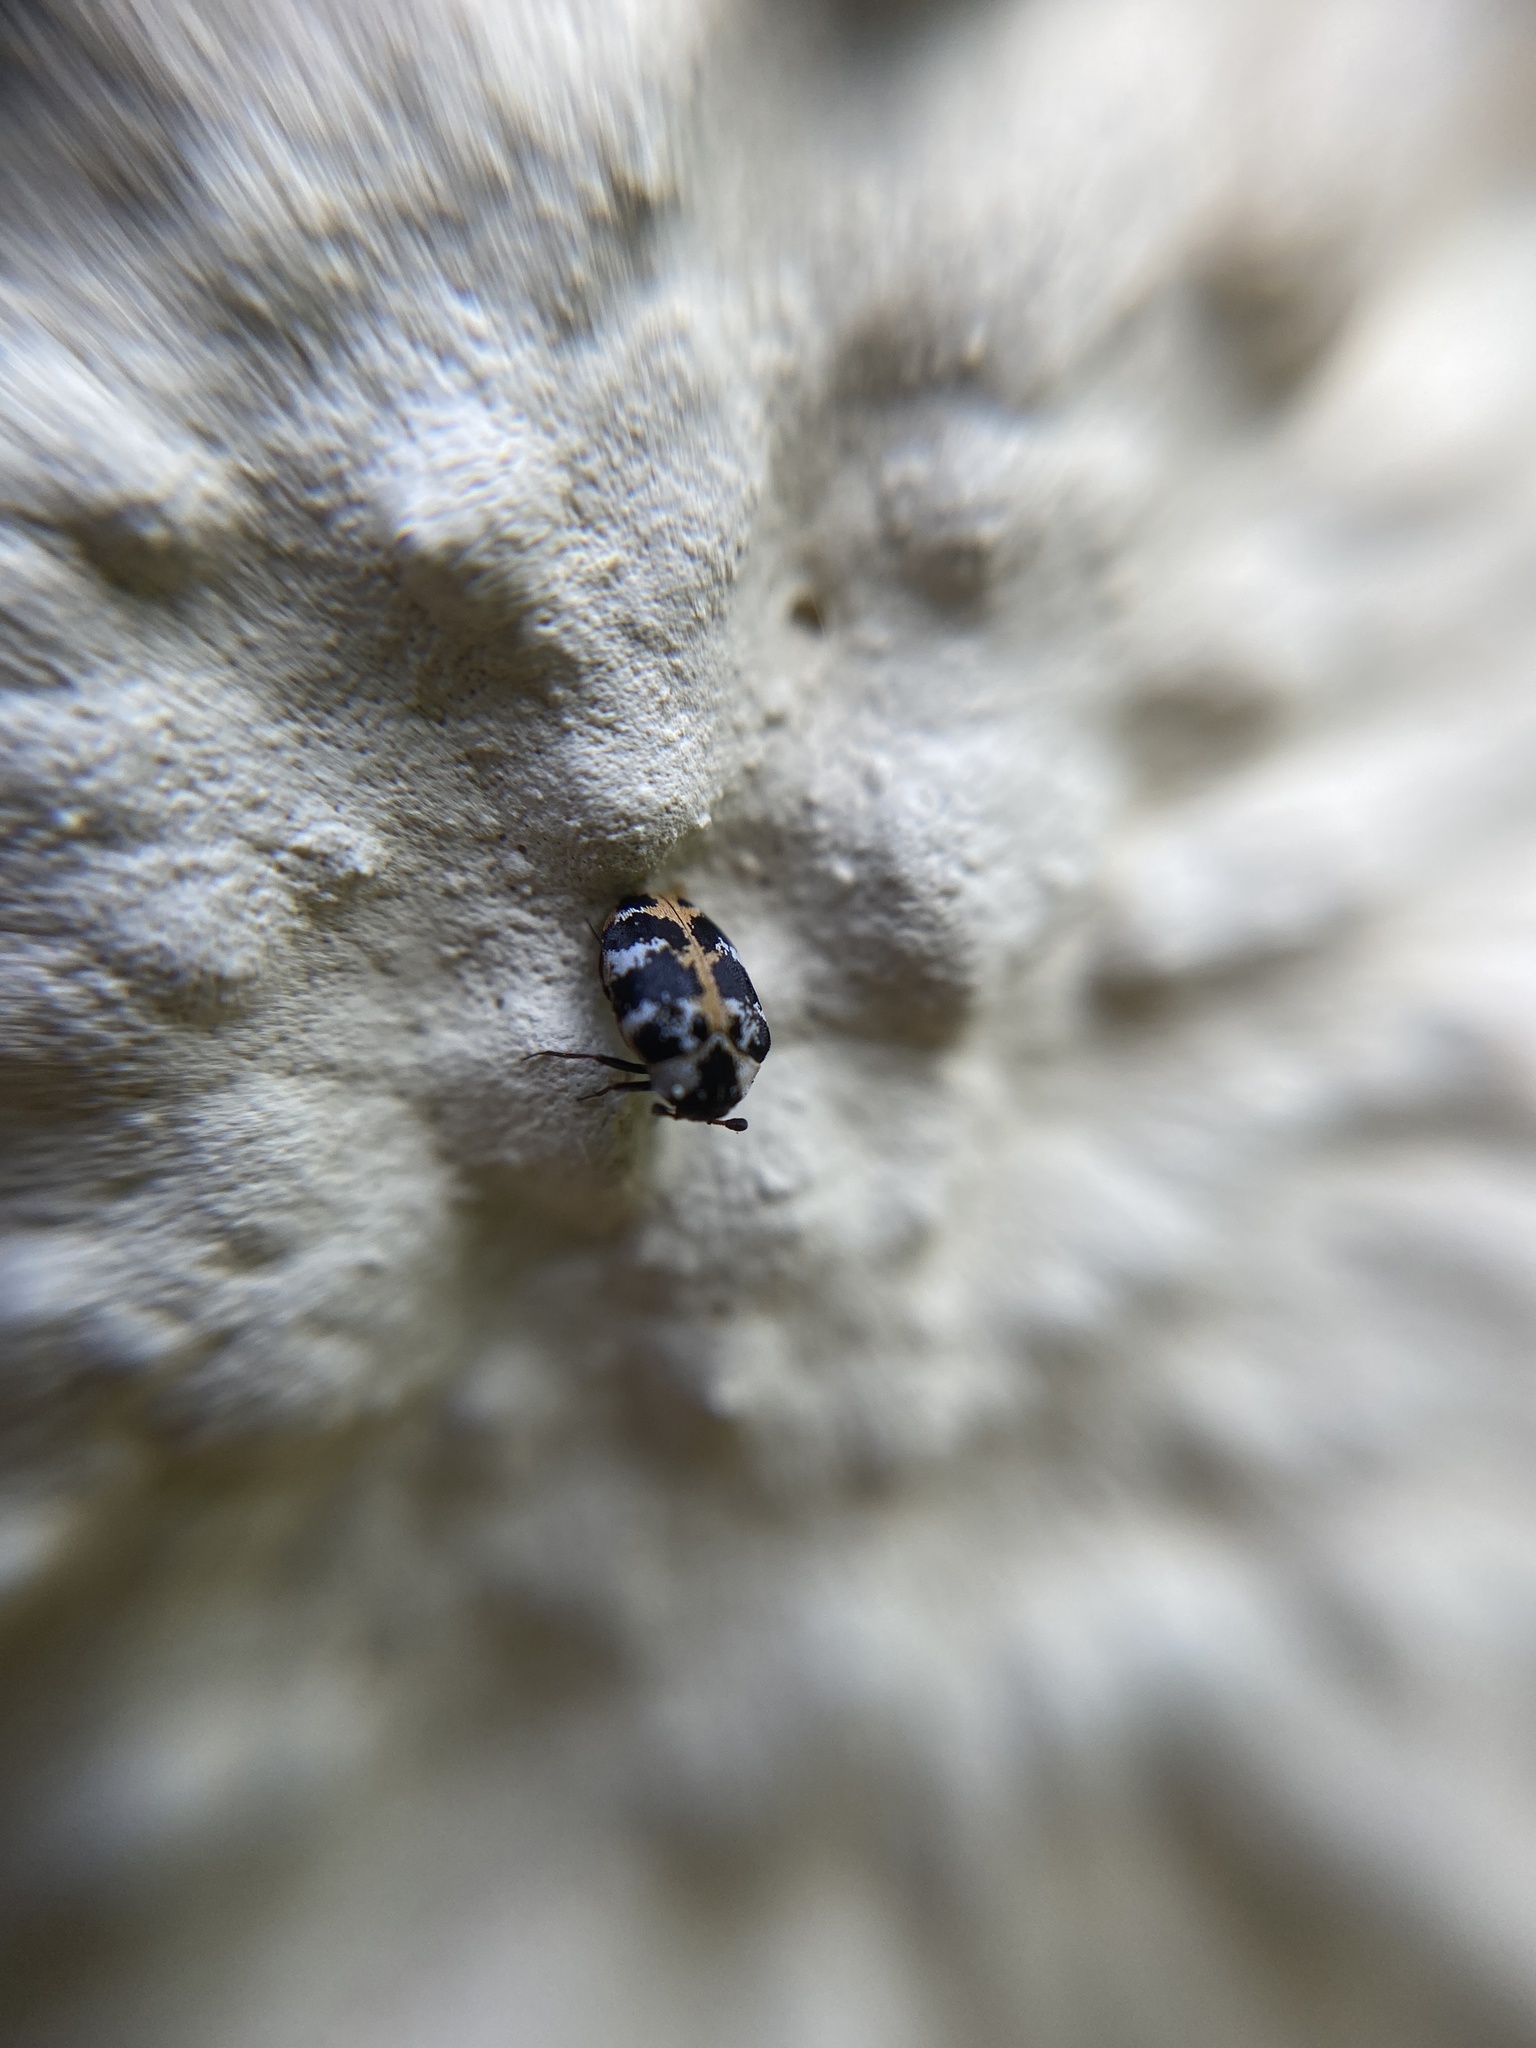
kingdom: Animalia
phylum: Arthropoda
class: Insecta
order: Coleoptera
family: Dermestidae
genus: Anthrenus
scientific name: Anthrenus scrophulariae
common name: Buffalo carpet beetle
